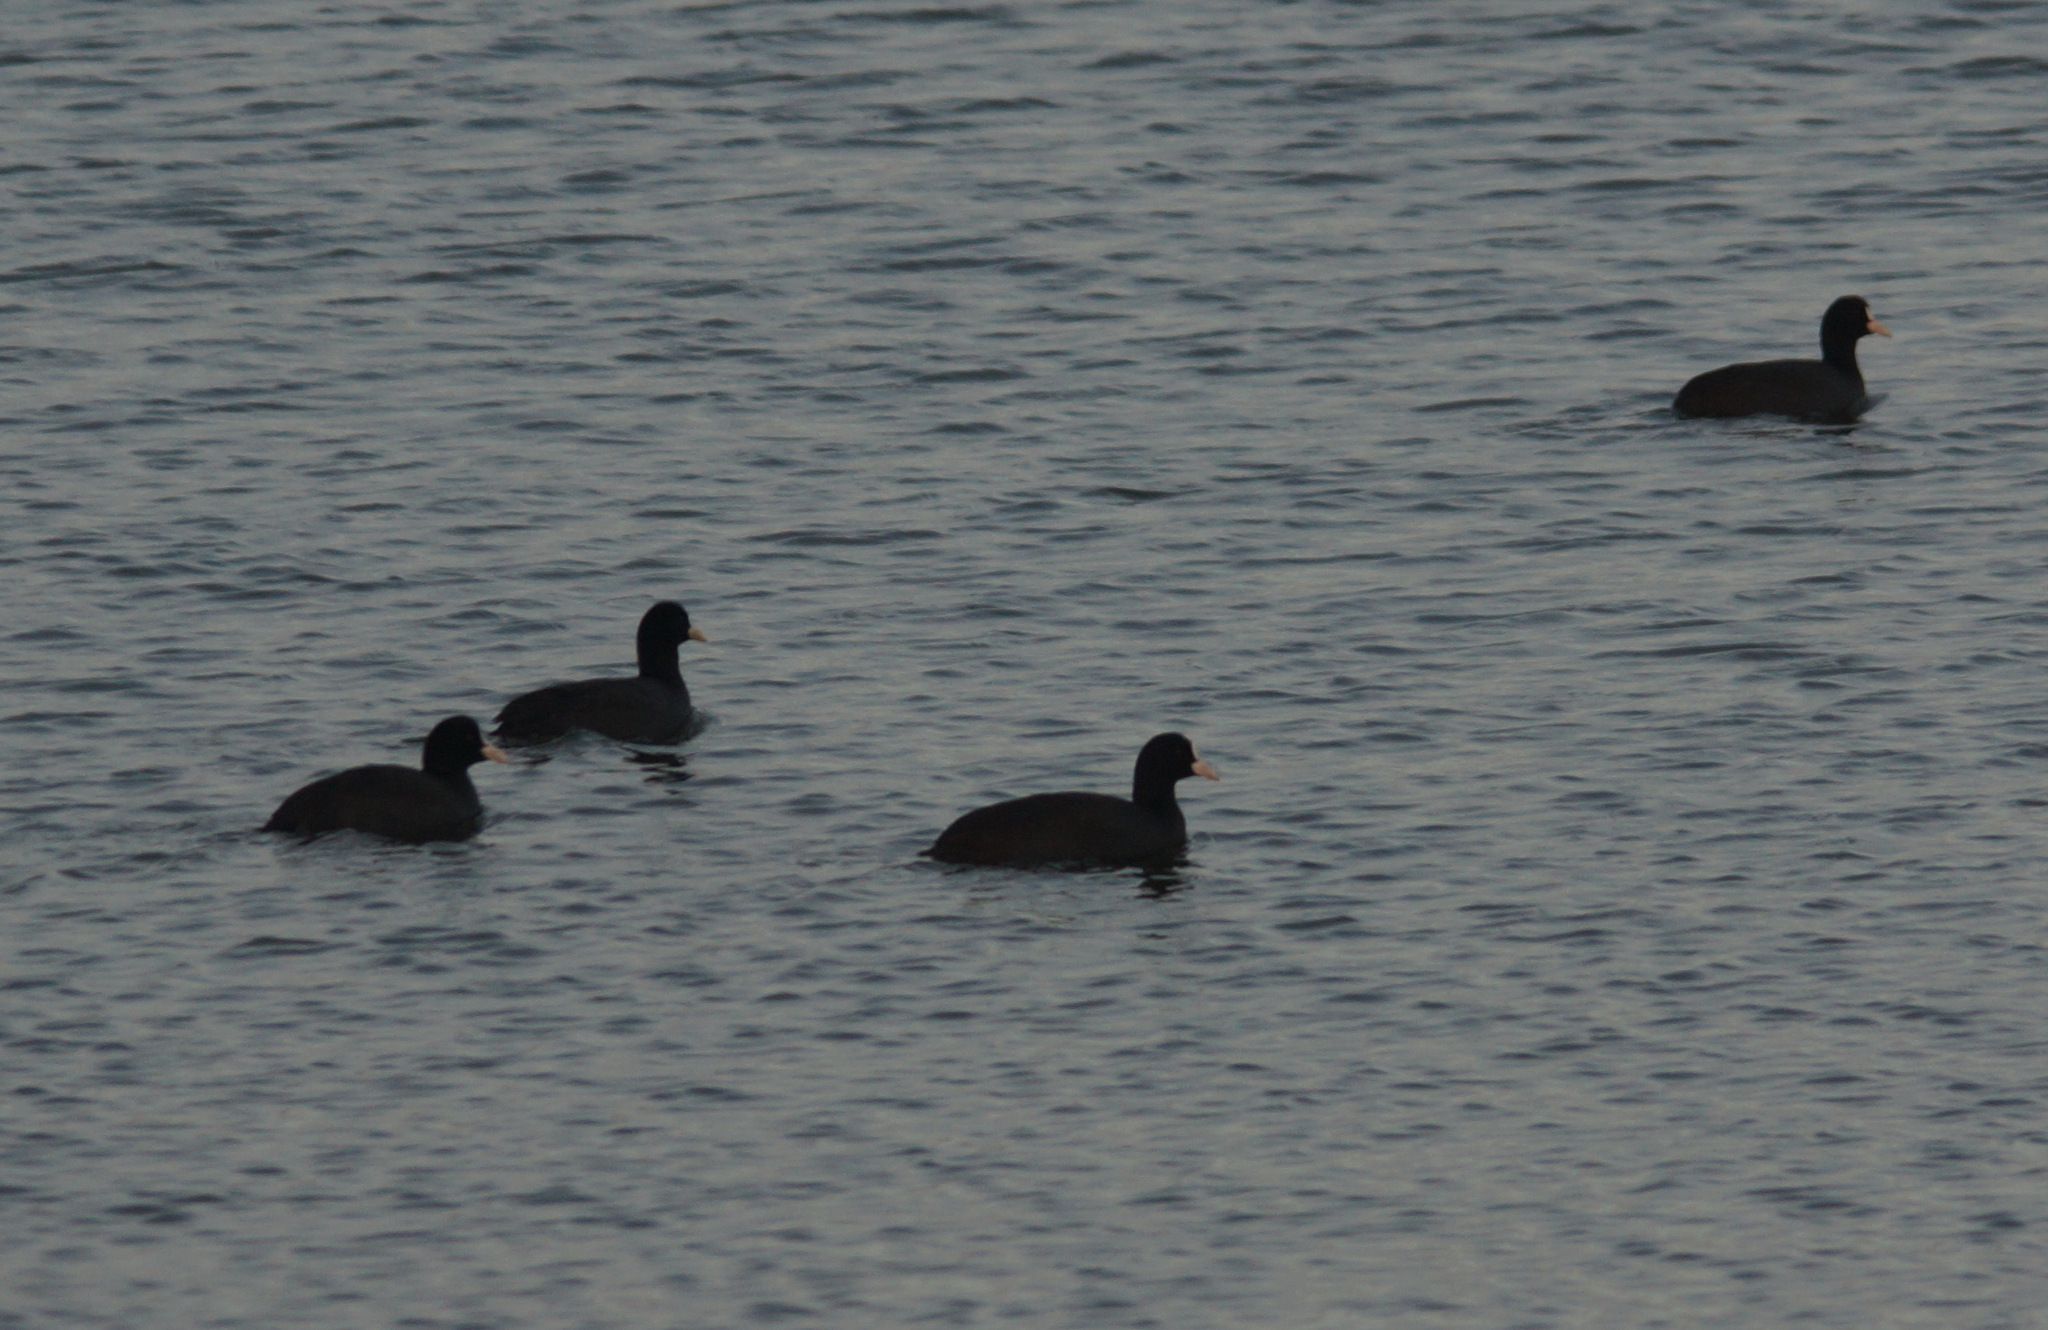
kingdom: Animalia
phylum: Chordata
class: Aves
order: Gruiformes
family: Rallidae
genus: Fulica
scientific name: Fulica atra
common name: Eurasian coot
